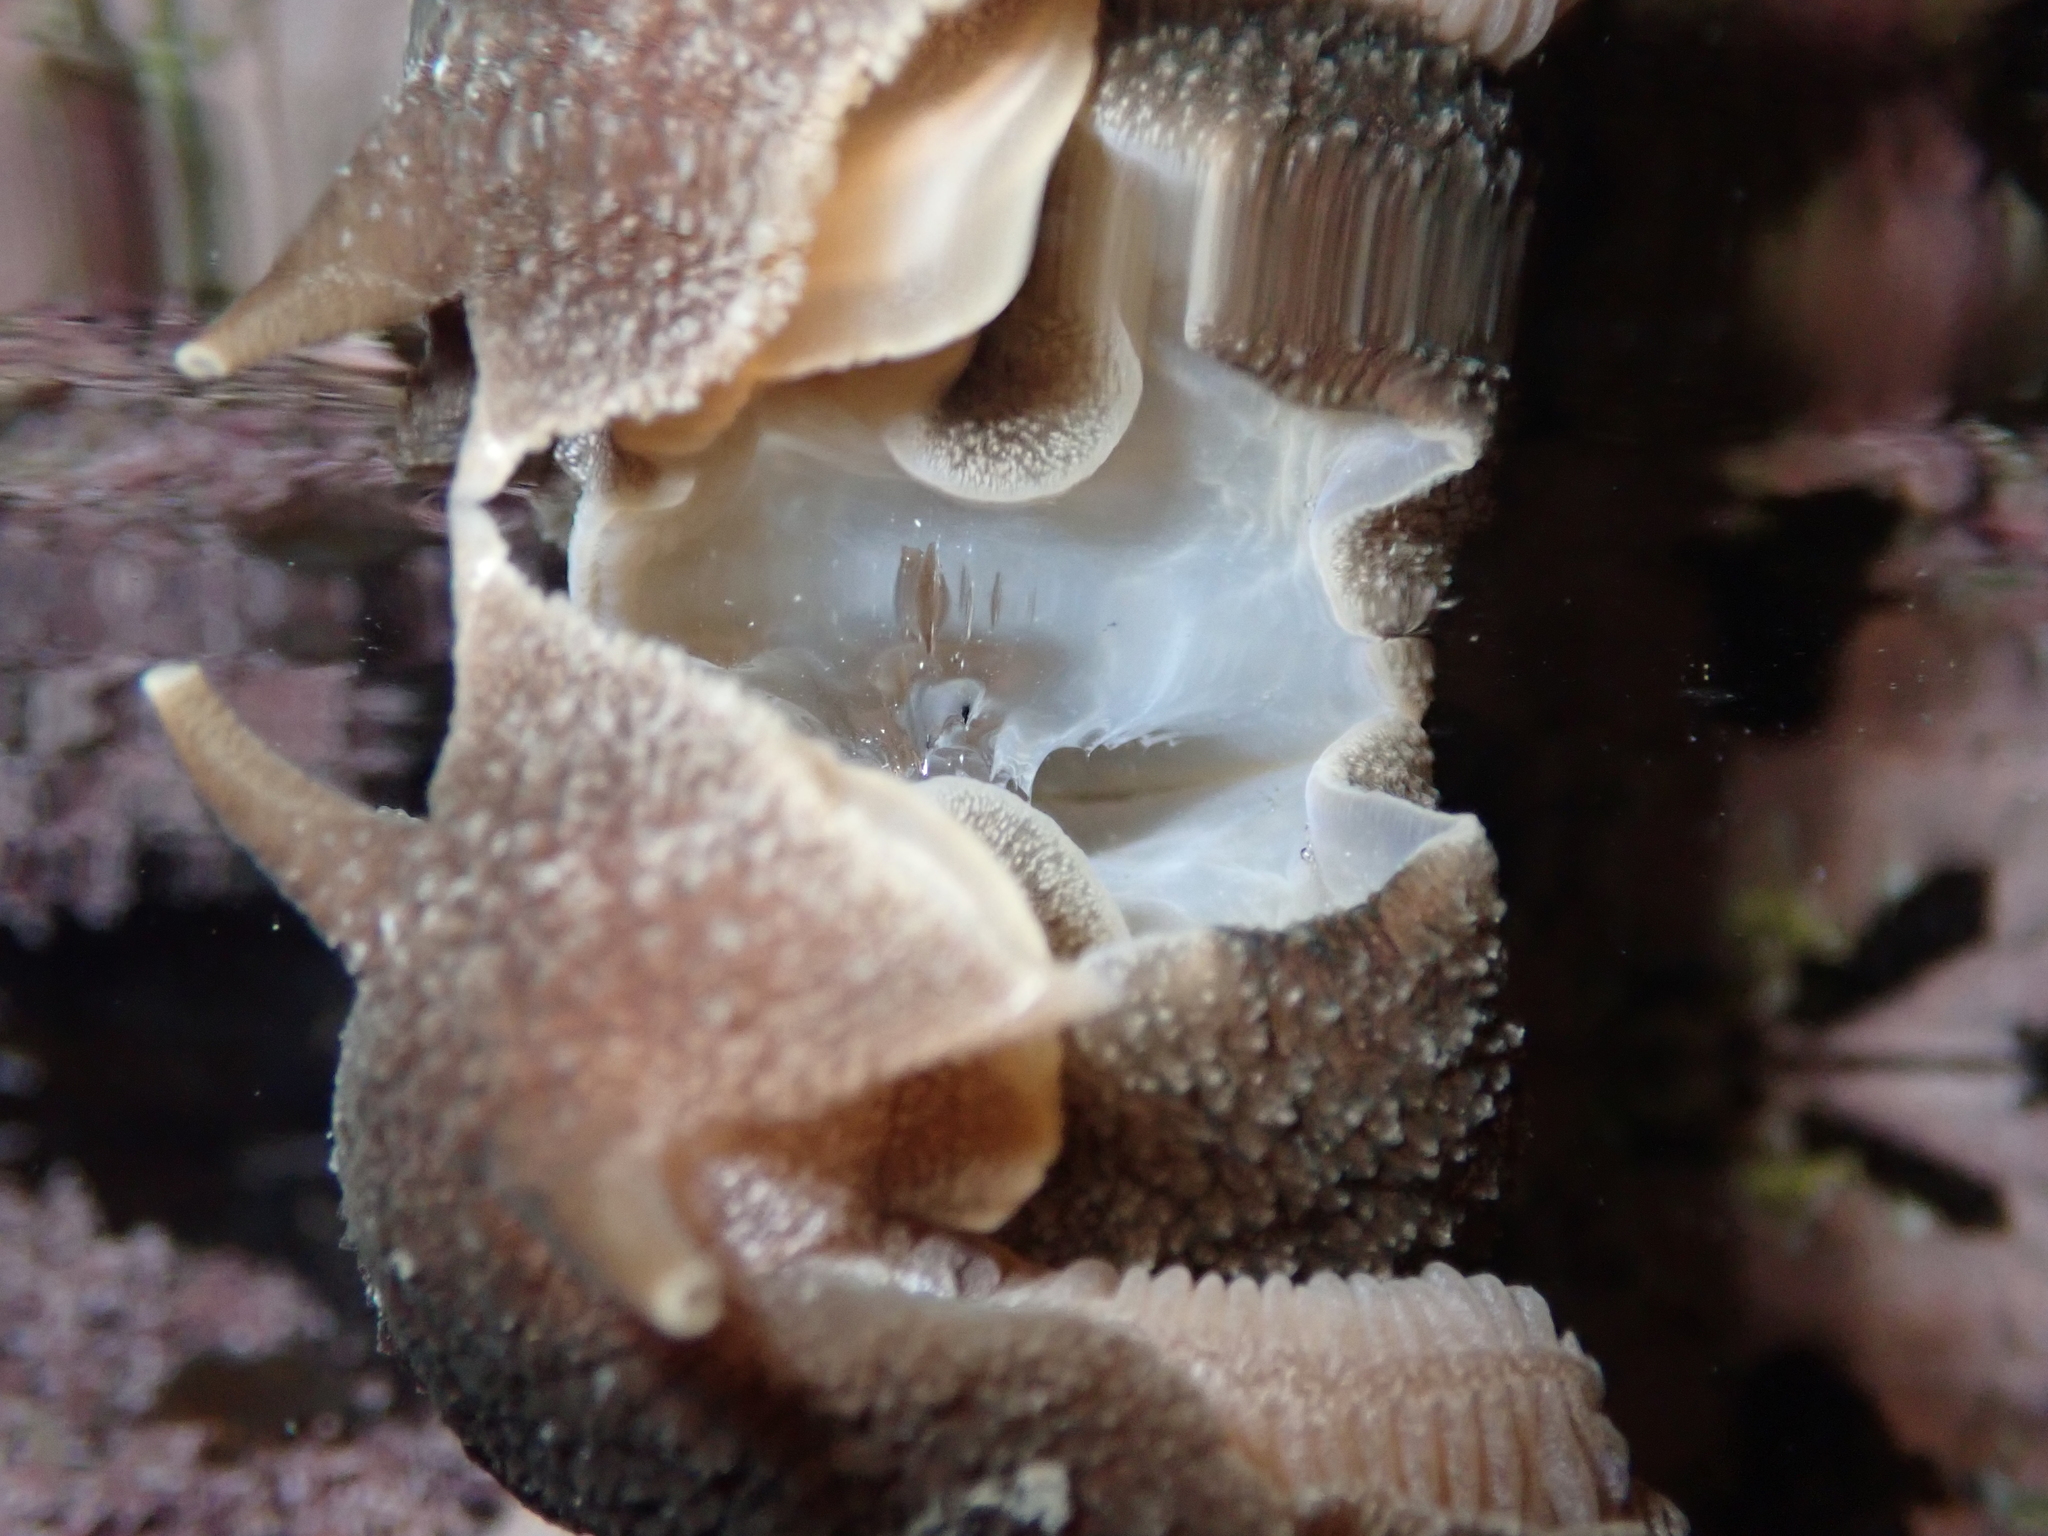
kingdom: Animalia
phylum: Mollusca
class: Gastropoda
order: Pleurobranchida
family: Pleurobranchaeidae
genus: Pleurobranchaea
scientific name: Pleurobranchaea maculata
